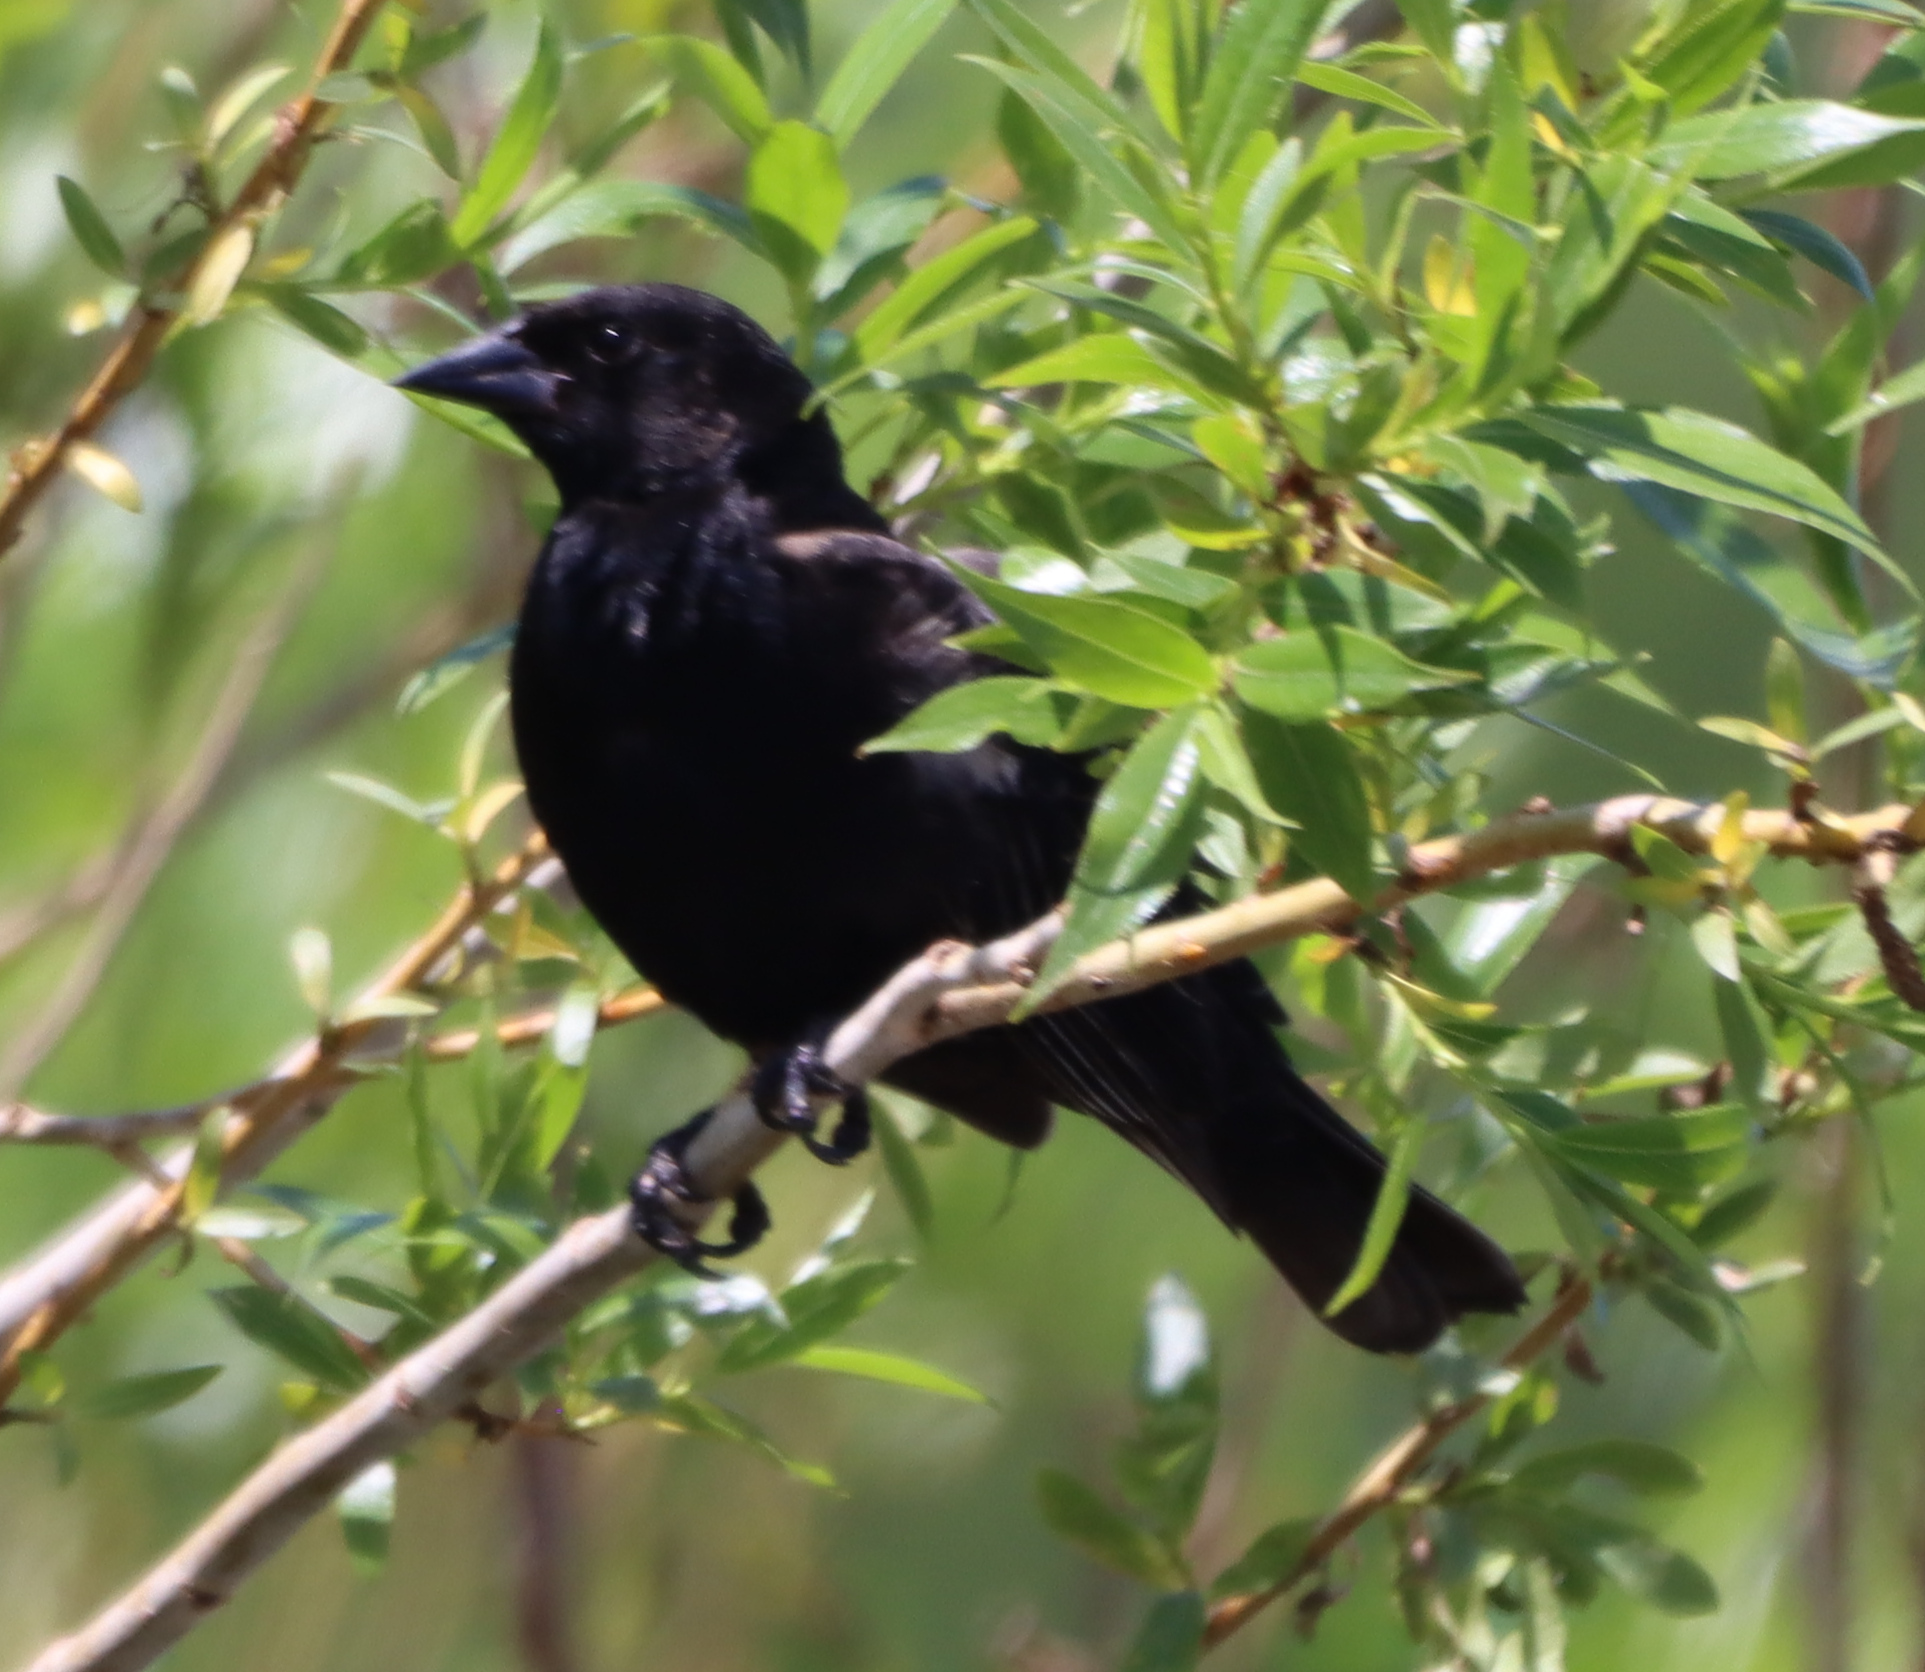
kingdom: Animalia
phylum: Chordata
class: Aves
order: Passeriformes
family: Icteridae
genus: Agelaius
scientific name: Agelaius phoeniceus
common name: Red-winged blackbird
